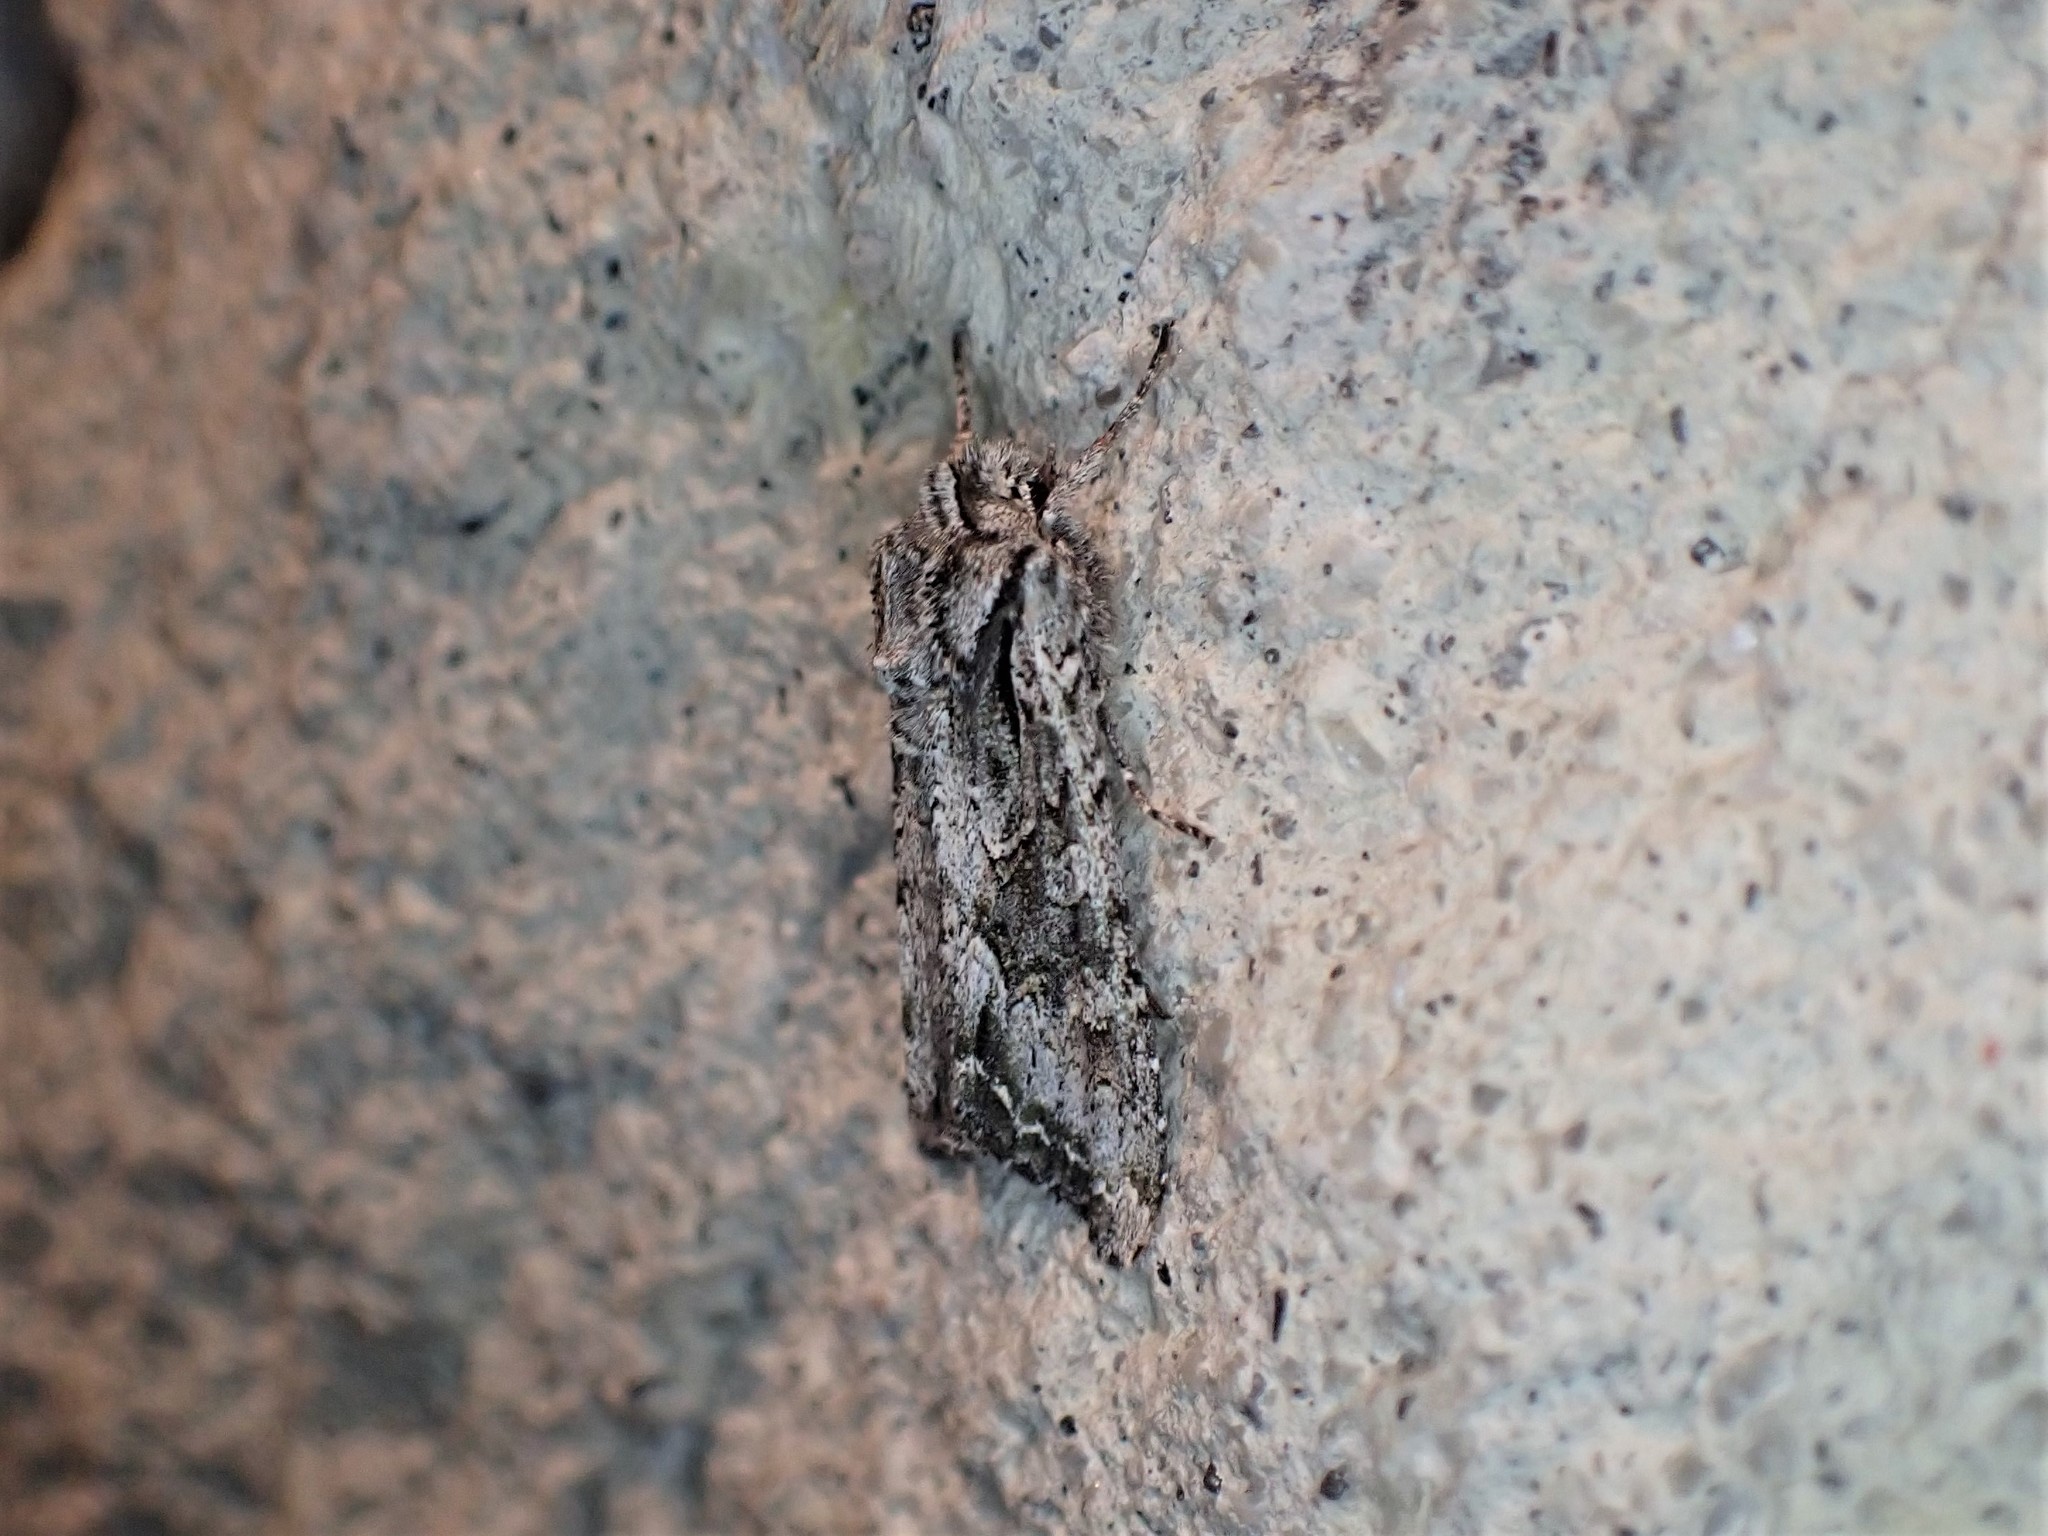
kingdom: Animalia
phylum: Arthropoda
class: Insecta
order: Lepidoptera
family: Noctuidae
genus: Ichneutica
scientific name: Ichneutica mutans
